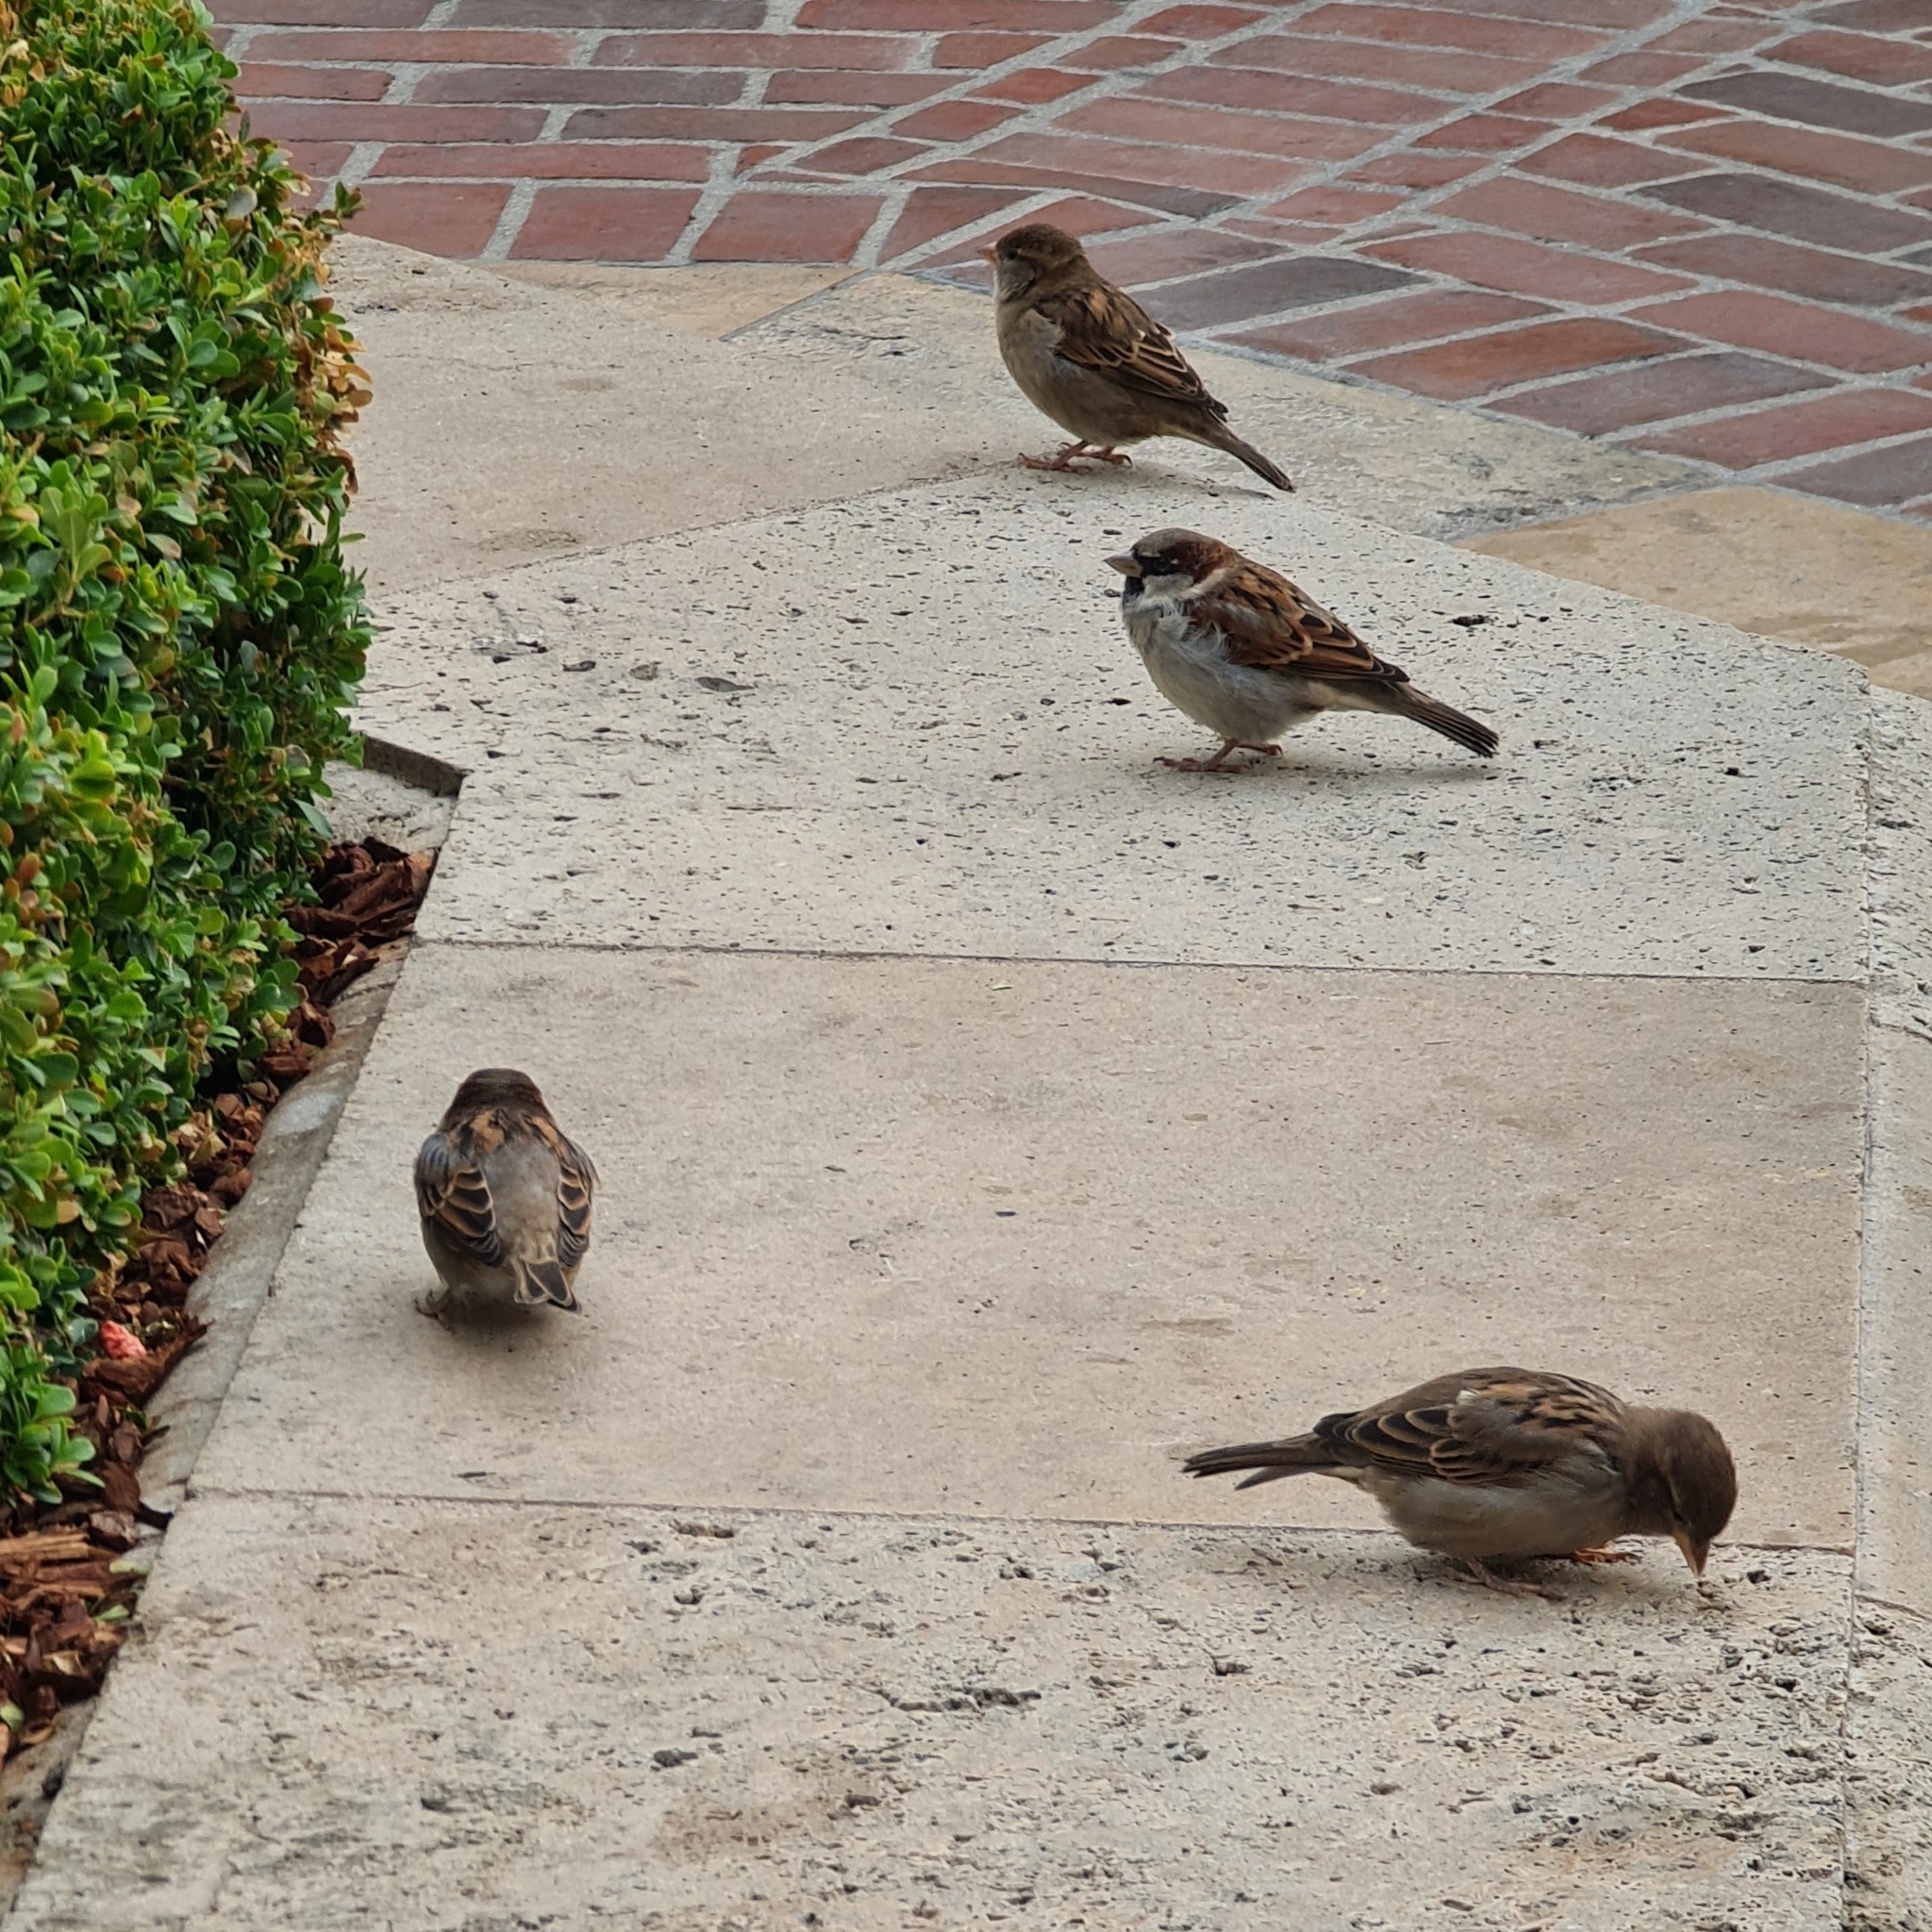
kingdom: Animalia
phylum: Chordata
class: Aves
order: Passeriformes
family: Passeridae
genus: Passer
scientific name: Passer domesticus
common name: House sparrow
